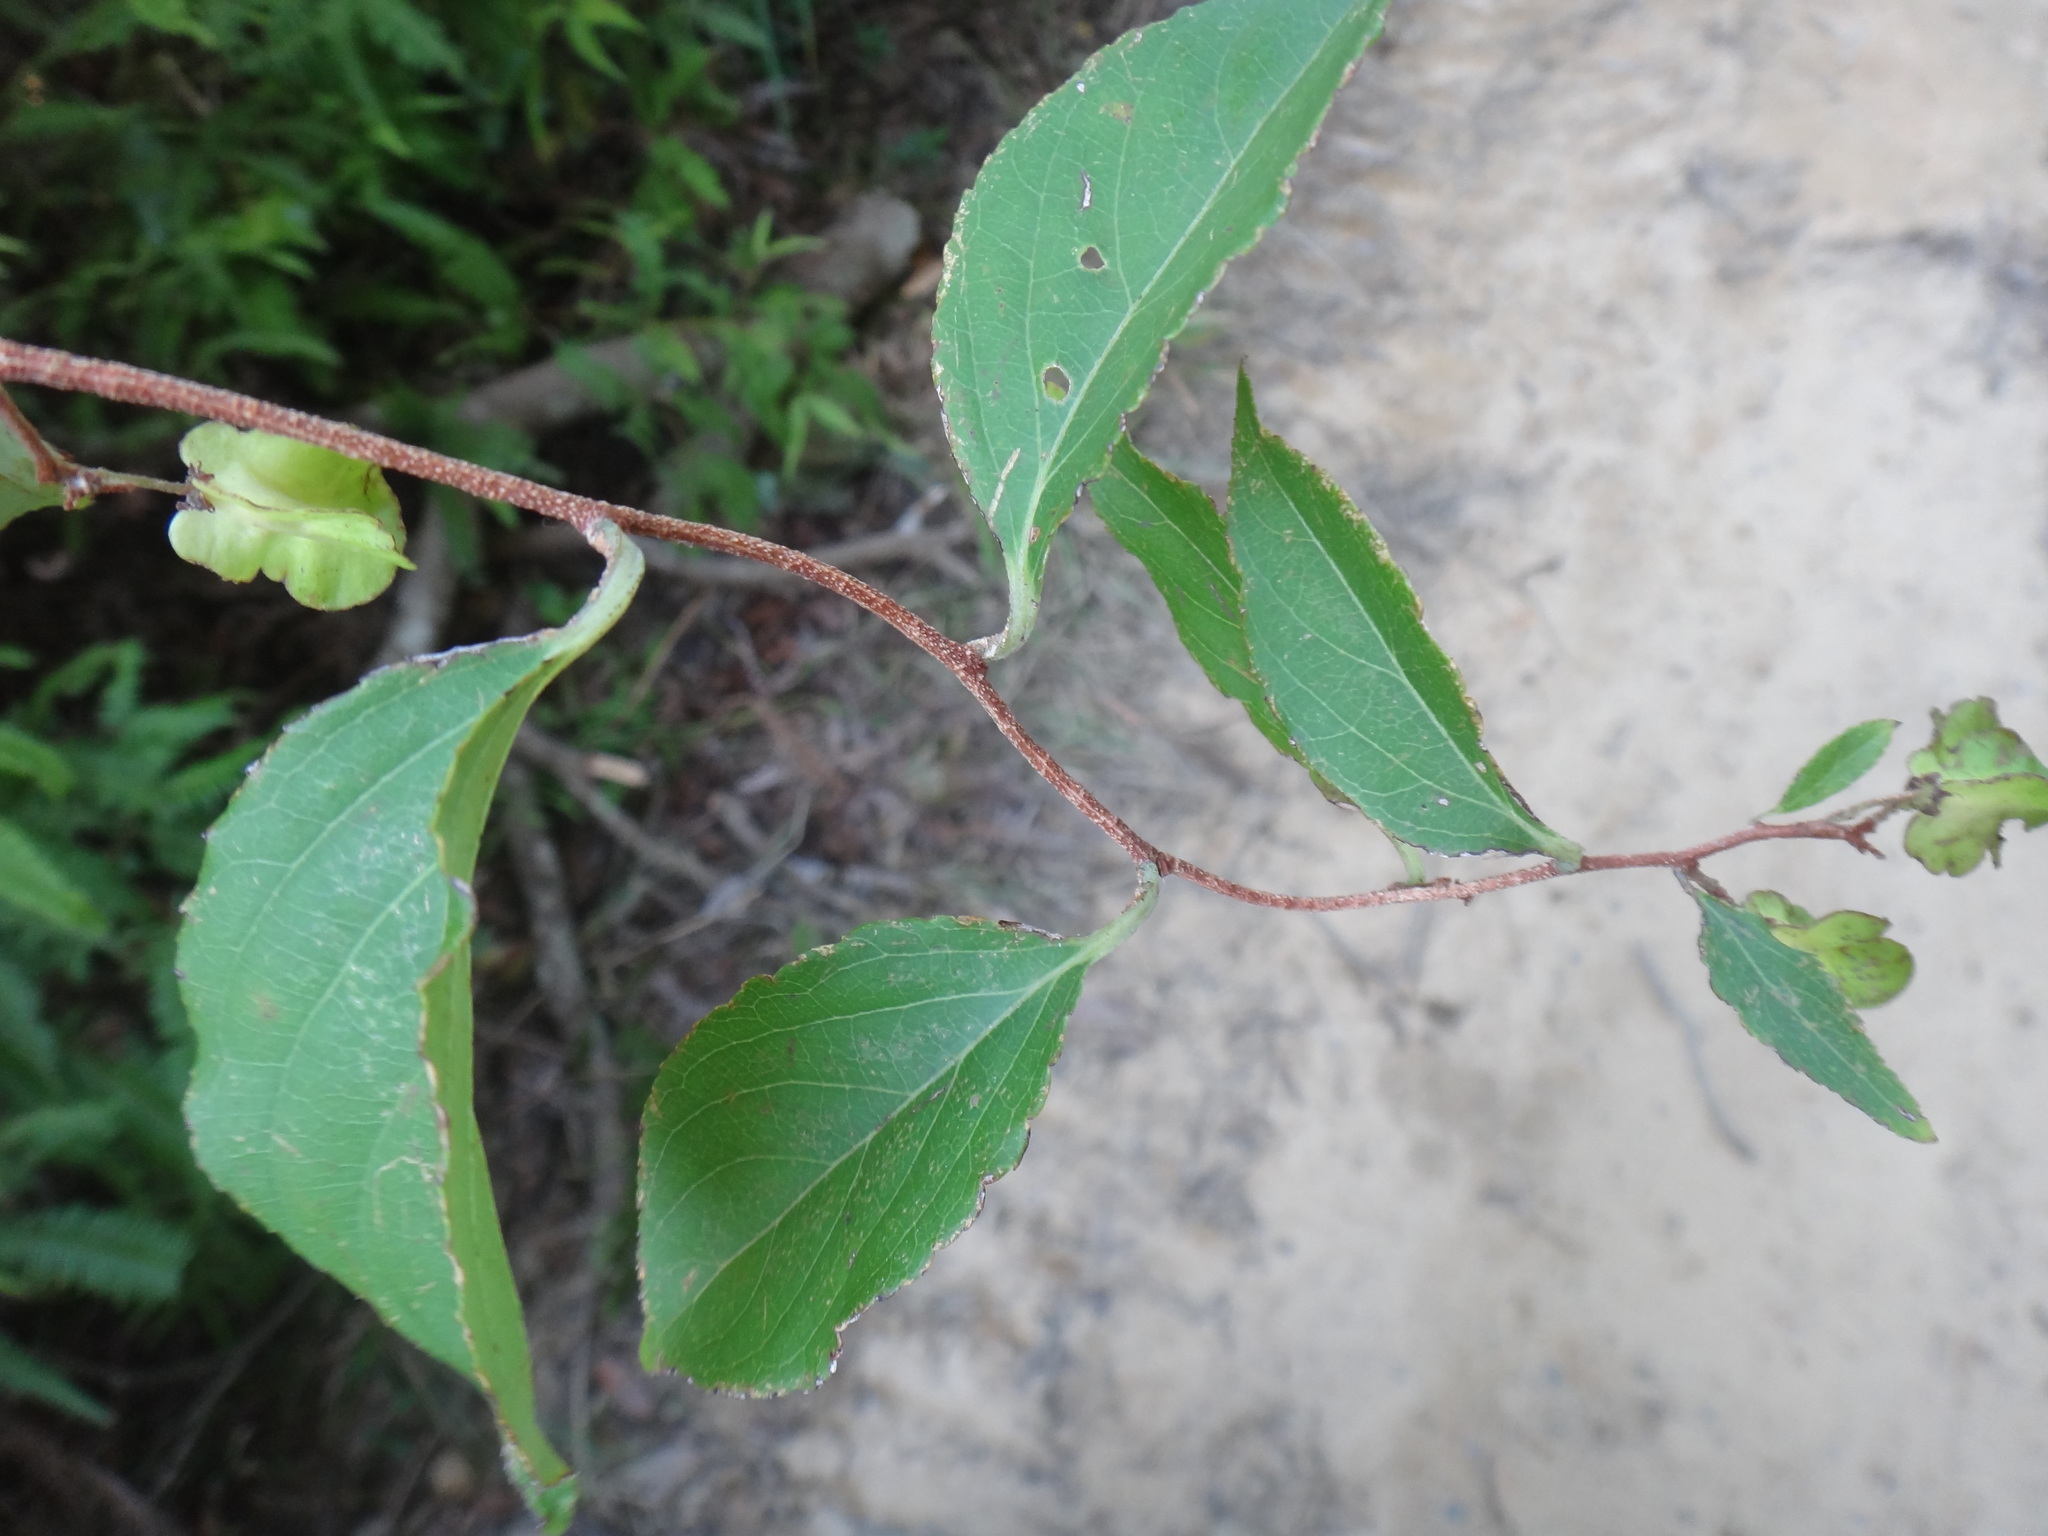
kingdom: Plantae
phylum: Tracheophyta
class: Magnoliopsida
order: Celastrales
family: Celastraceae
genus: Tripterygium
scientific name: Tripterygium wilfordii
